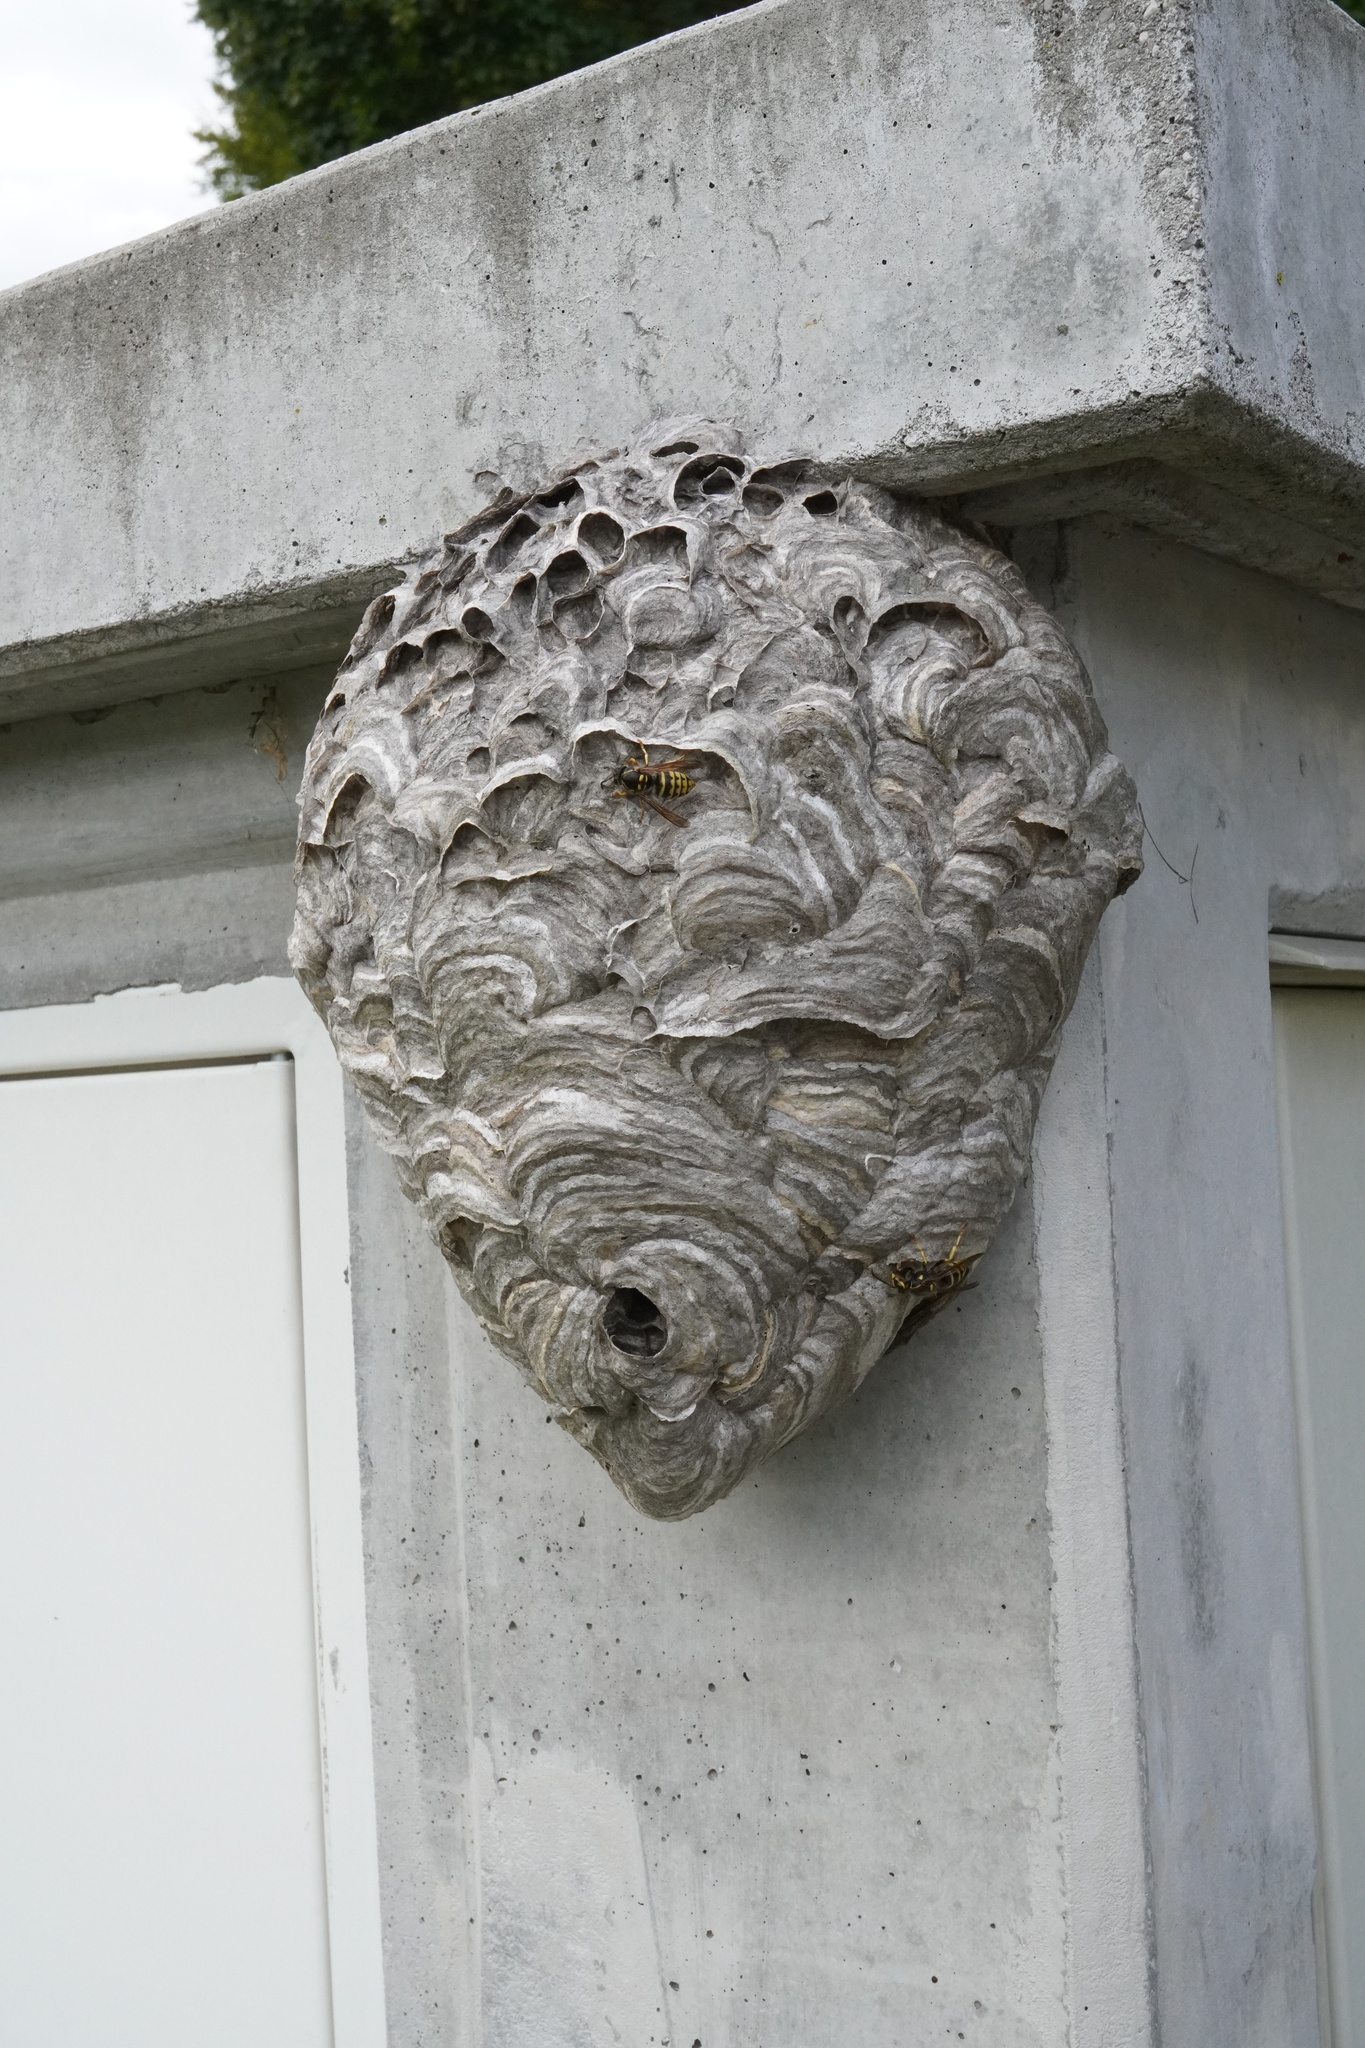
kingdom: Animalia
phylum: Arthropoda
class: Insecta
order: Hymenoptera
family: Vespidae
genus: Dolichovespula
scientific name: Dolichovespula media
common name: Median wasp
